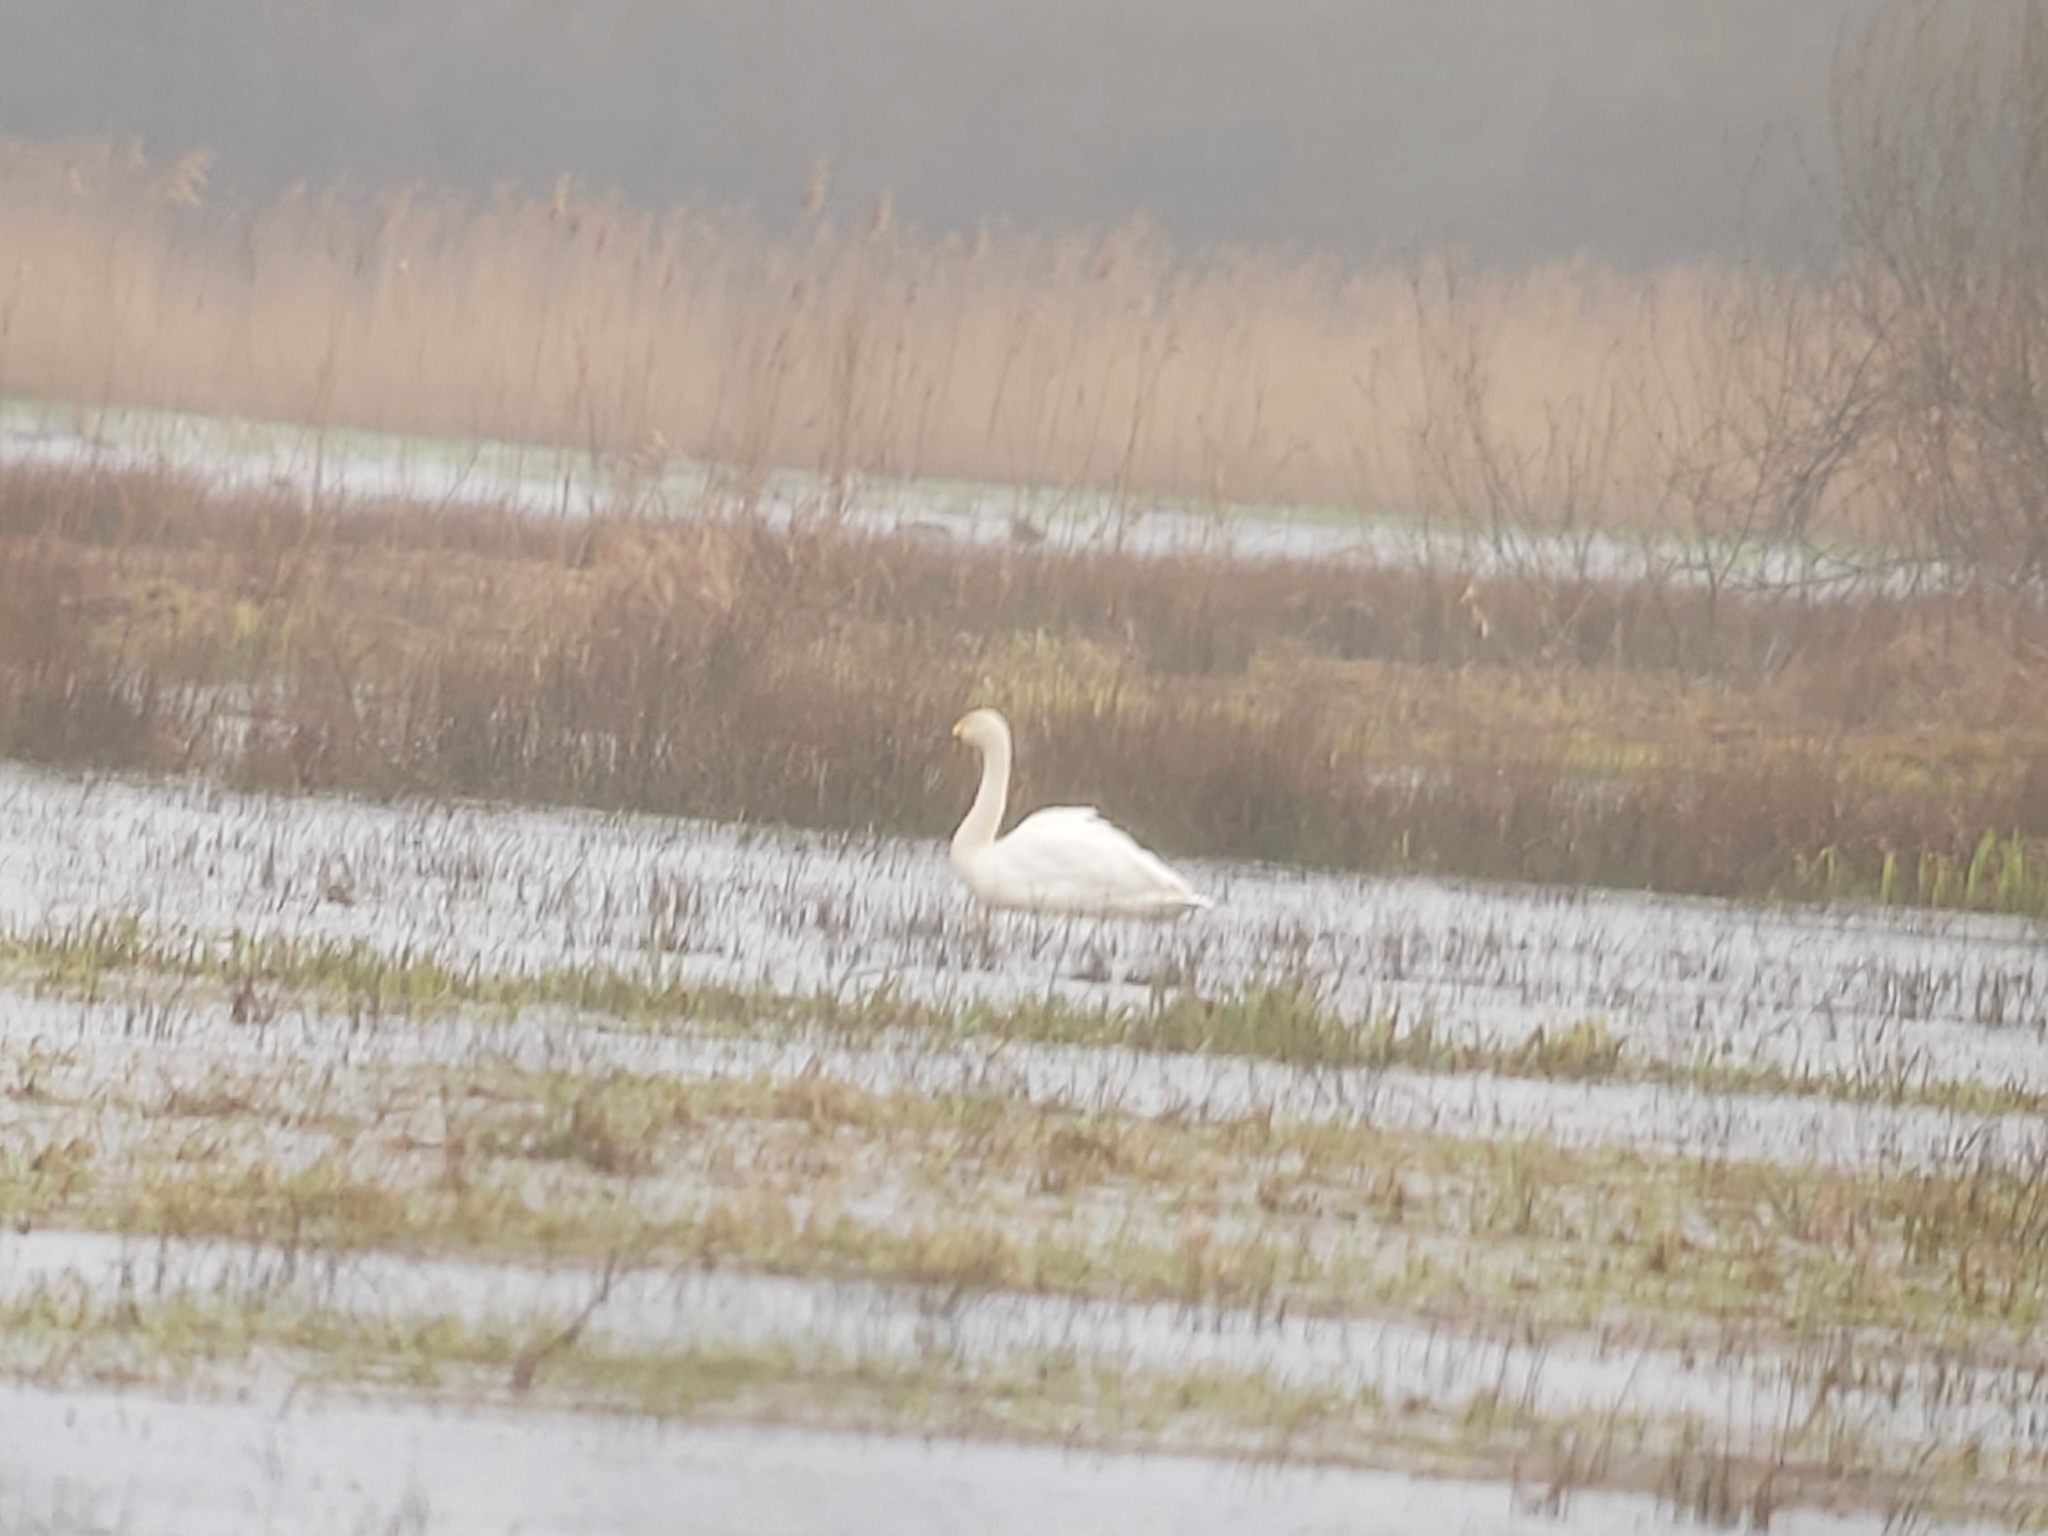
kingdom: Animalia
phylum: Chordata
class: Aves
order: Anseriformes
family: Anatidae
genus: Cygnus
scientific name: Cygnus columbianus
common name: Tundra swan
